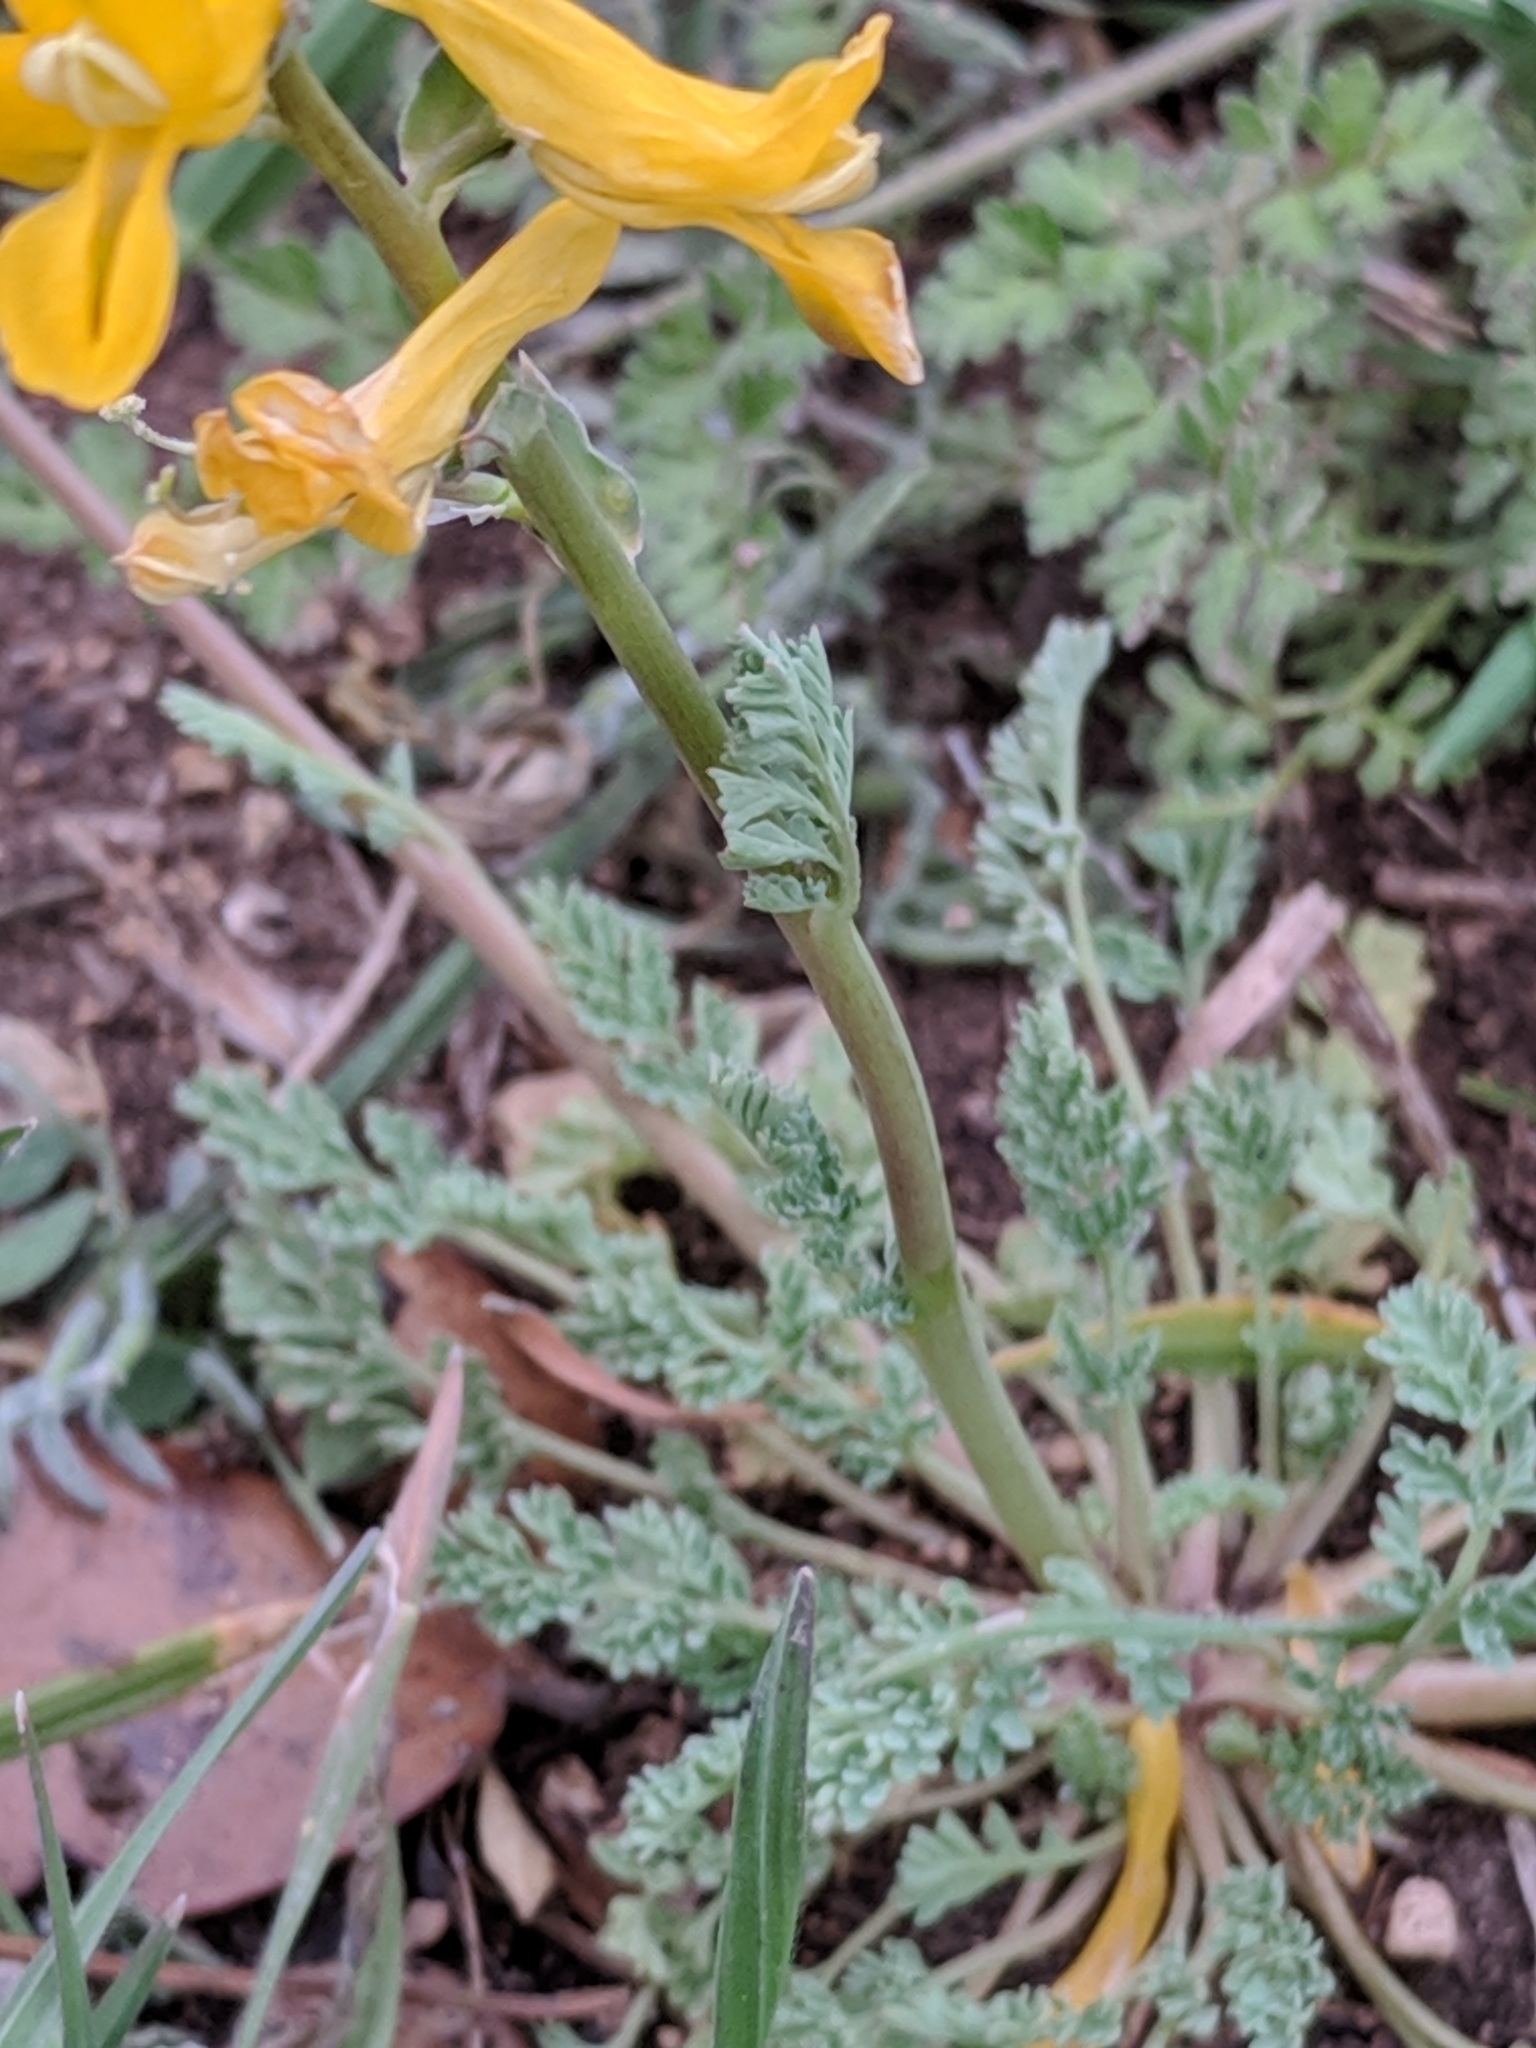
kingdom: Plantae
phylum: Tracheophyta
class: Magnoliopsida
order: Ranunculales
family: Papaveraceae
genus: Corydalis
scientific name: Corydalis curvisiliqua
